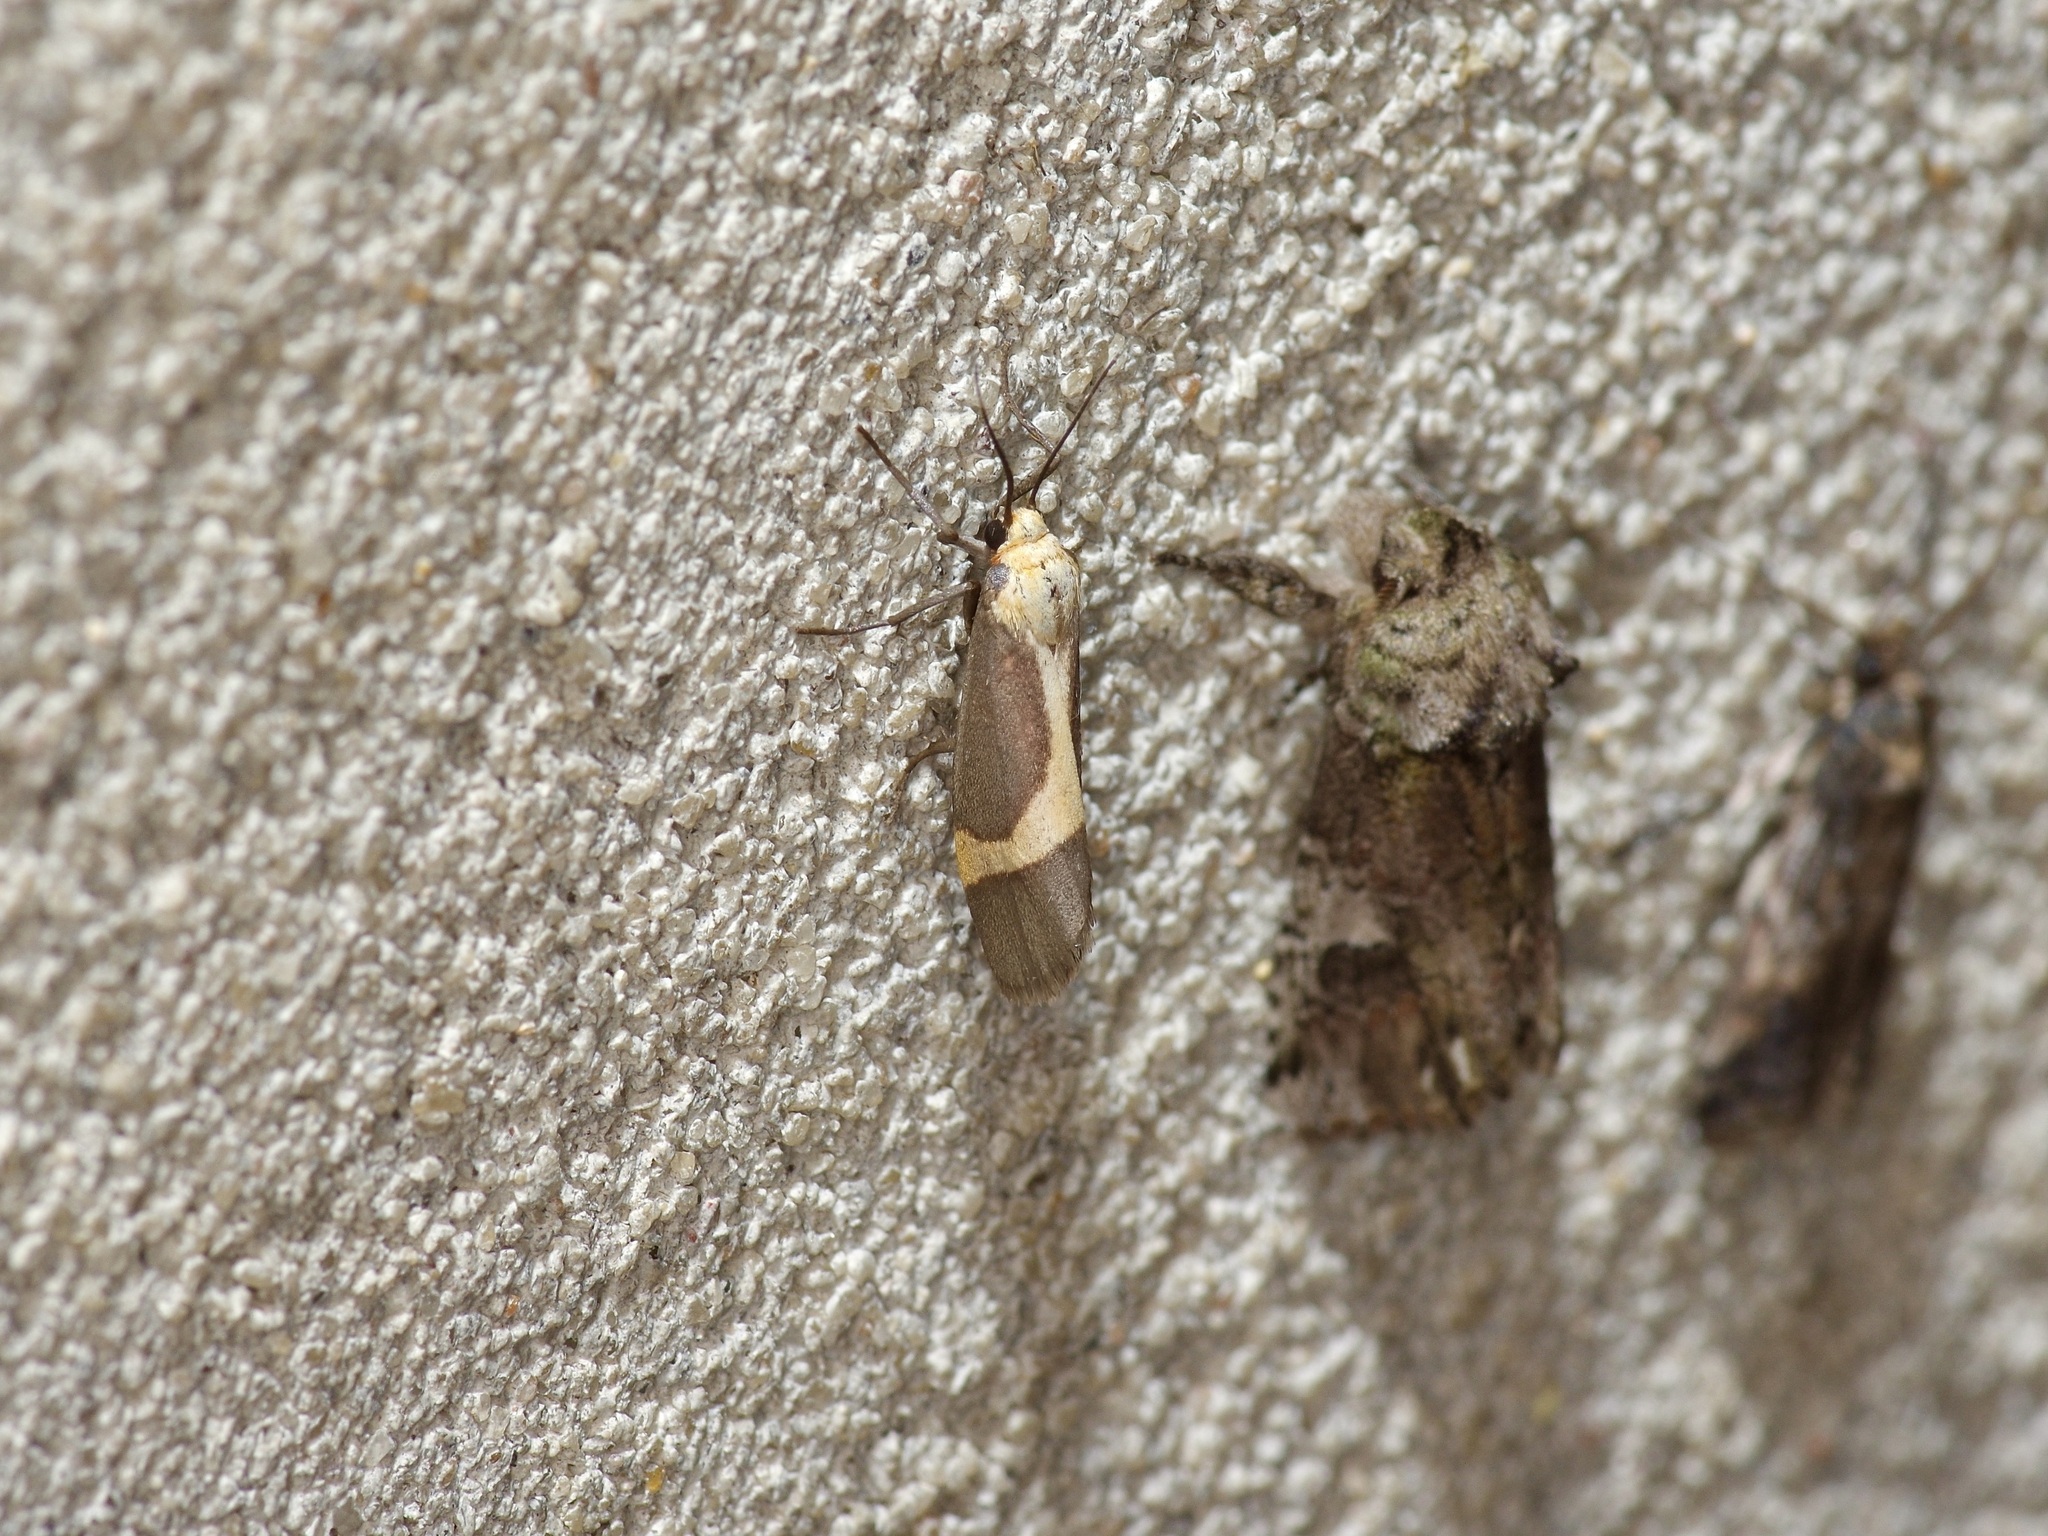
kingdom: Animalia
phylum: Arthropoda
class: Insecta
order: Lepidoptera
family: Erebidae
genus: Cisthene
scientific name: Cisthene angelus
